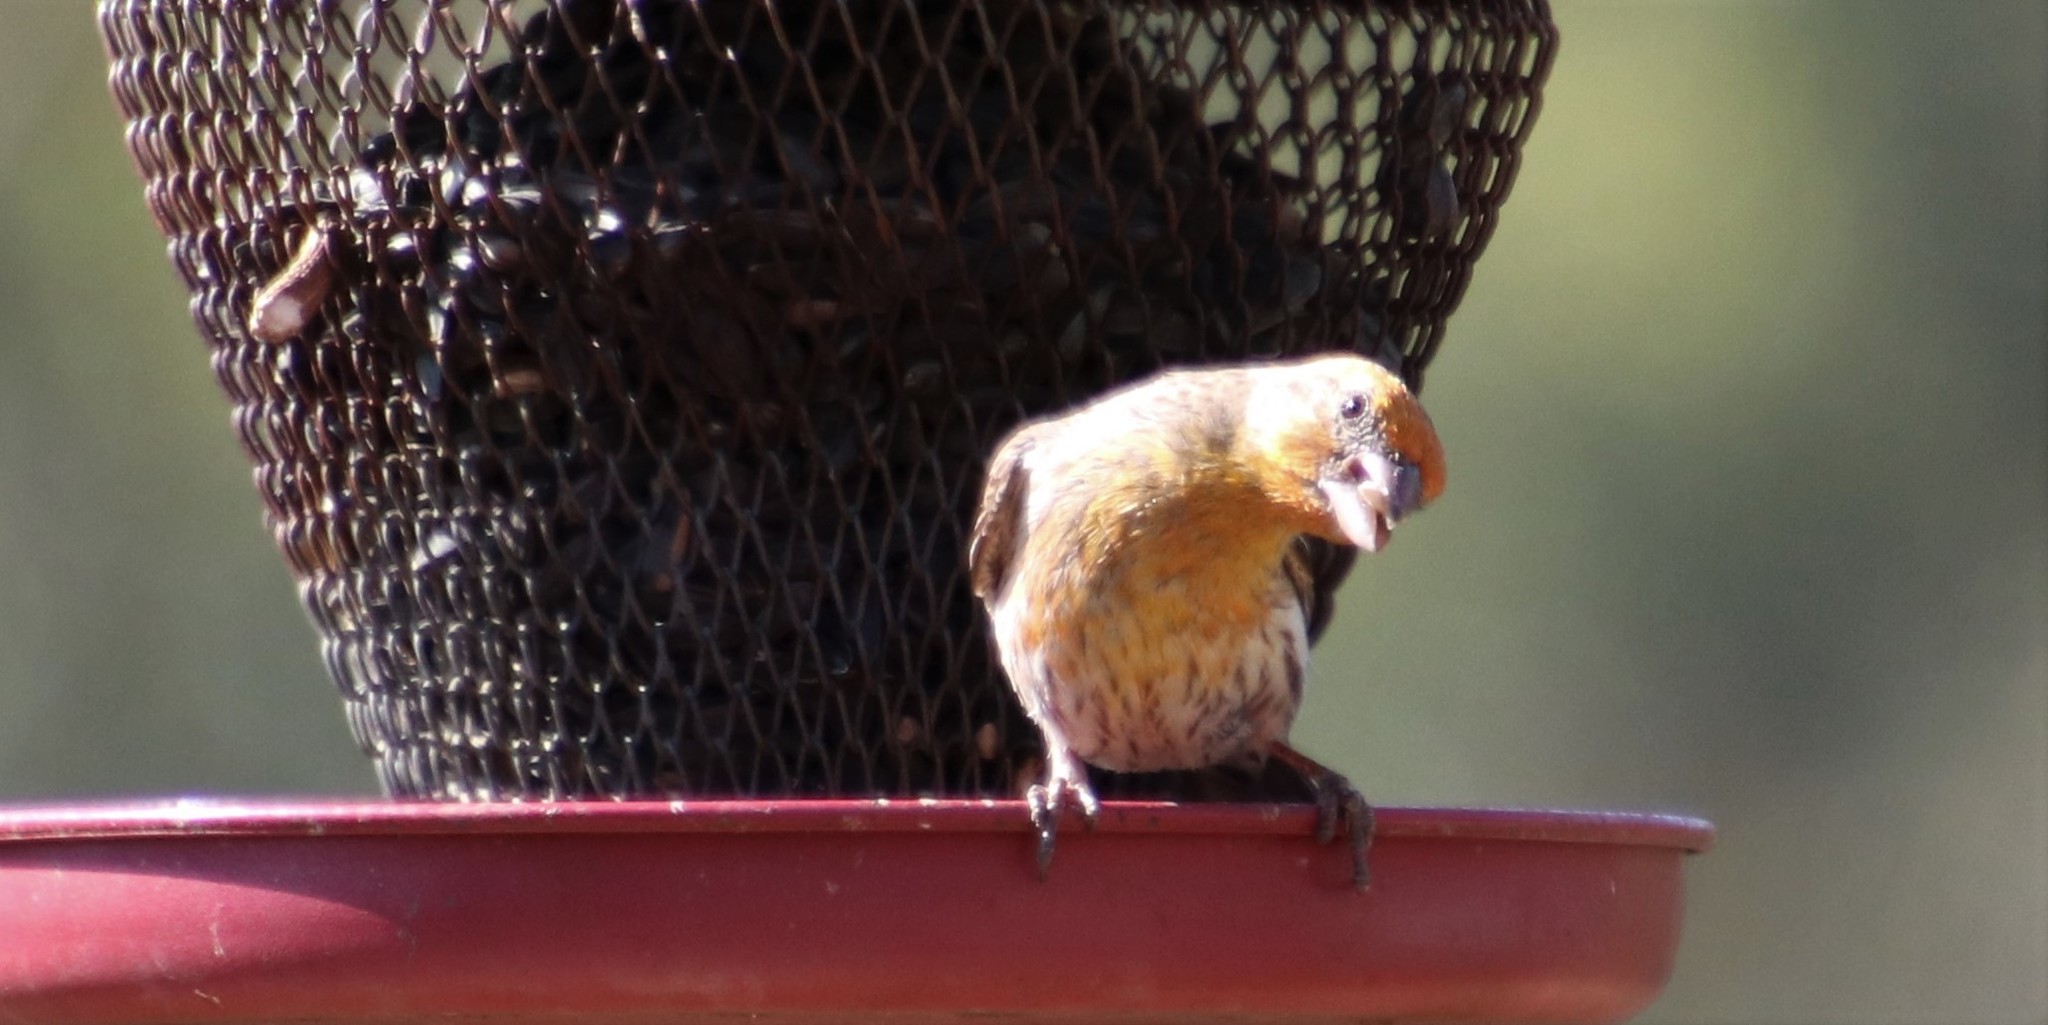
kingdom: Animalia
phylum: Chordata
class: Aves
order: Passeriformes
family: Fringillidae
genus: Haemorhous
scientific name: Haemorhous mexicanus
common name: House finch
